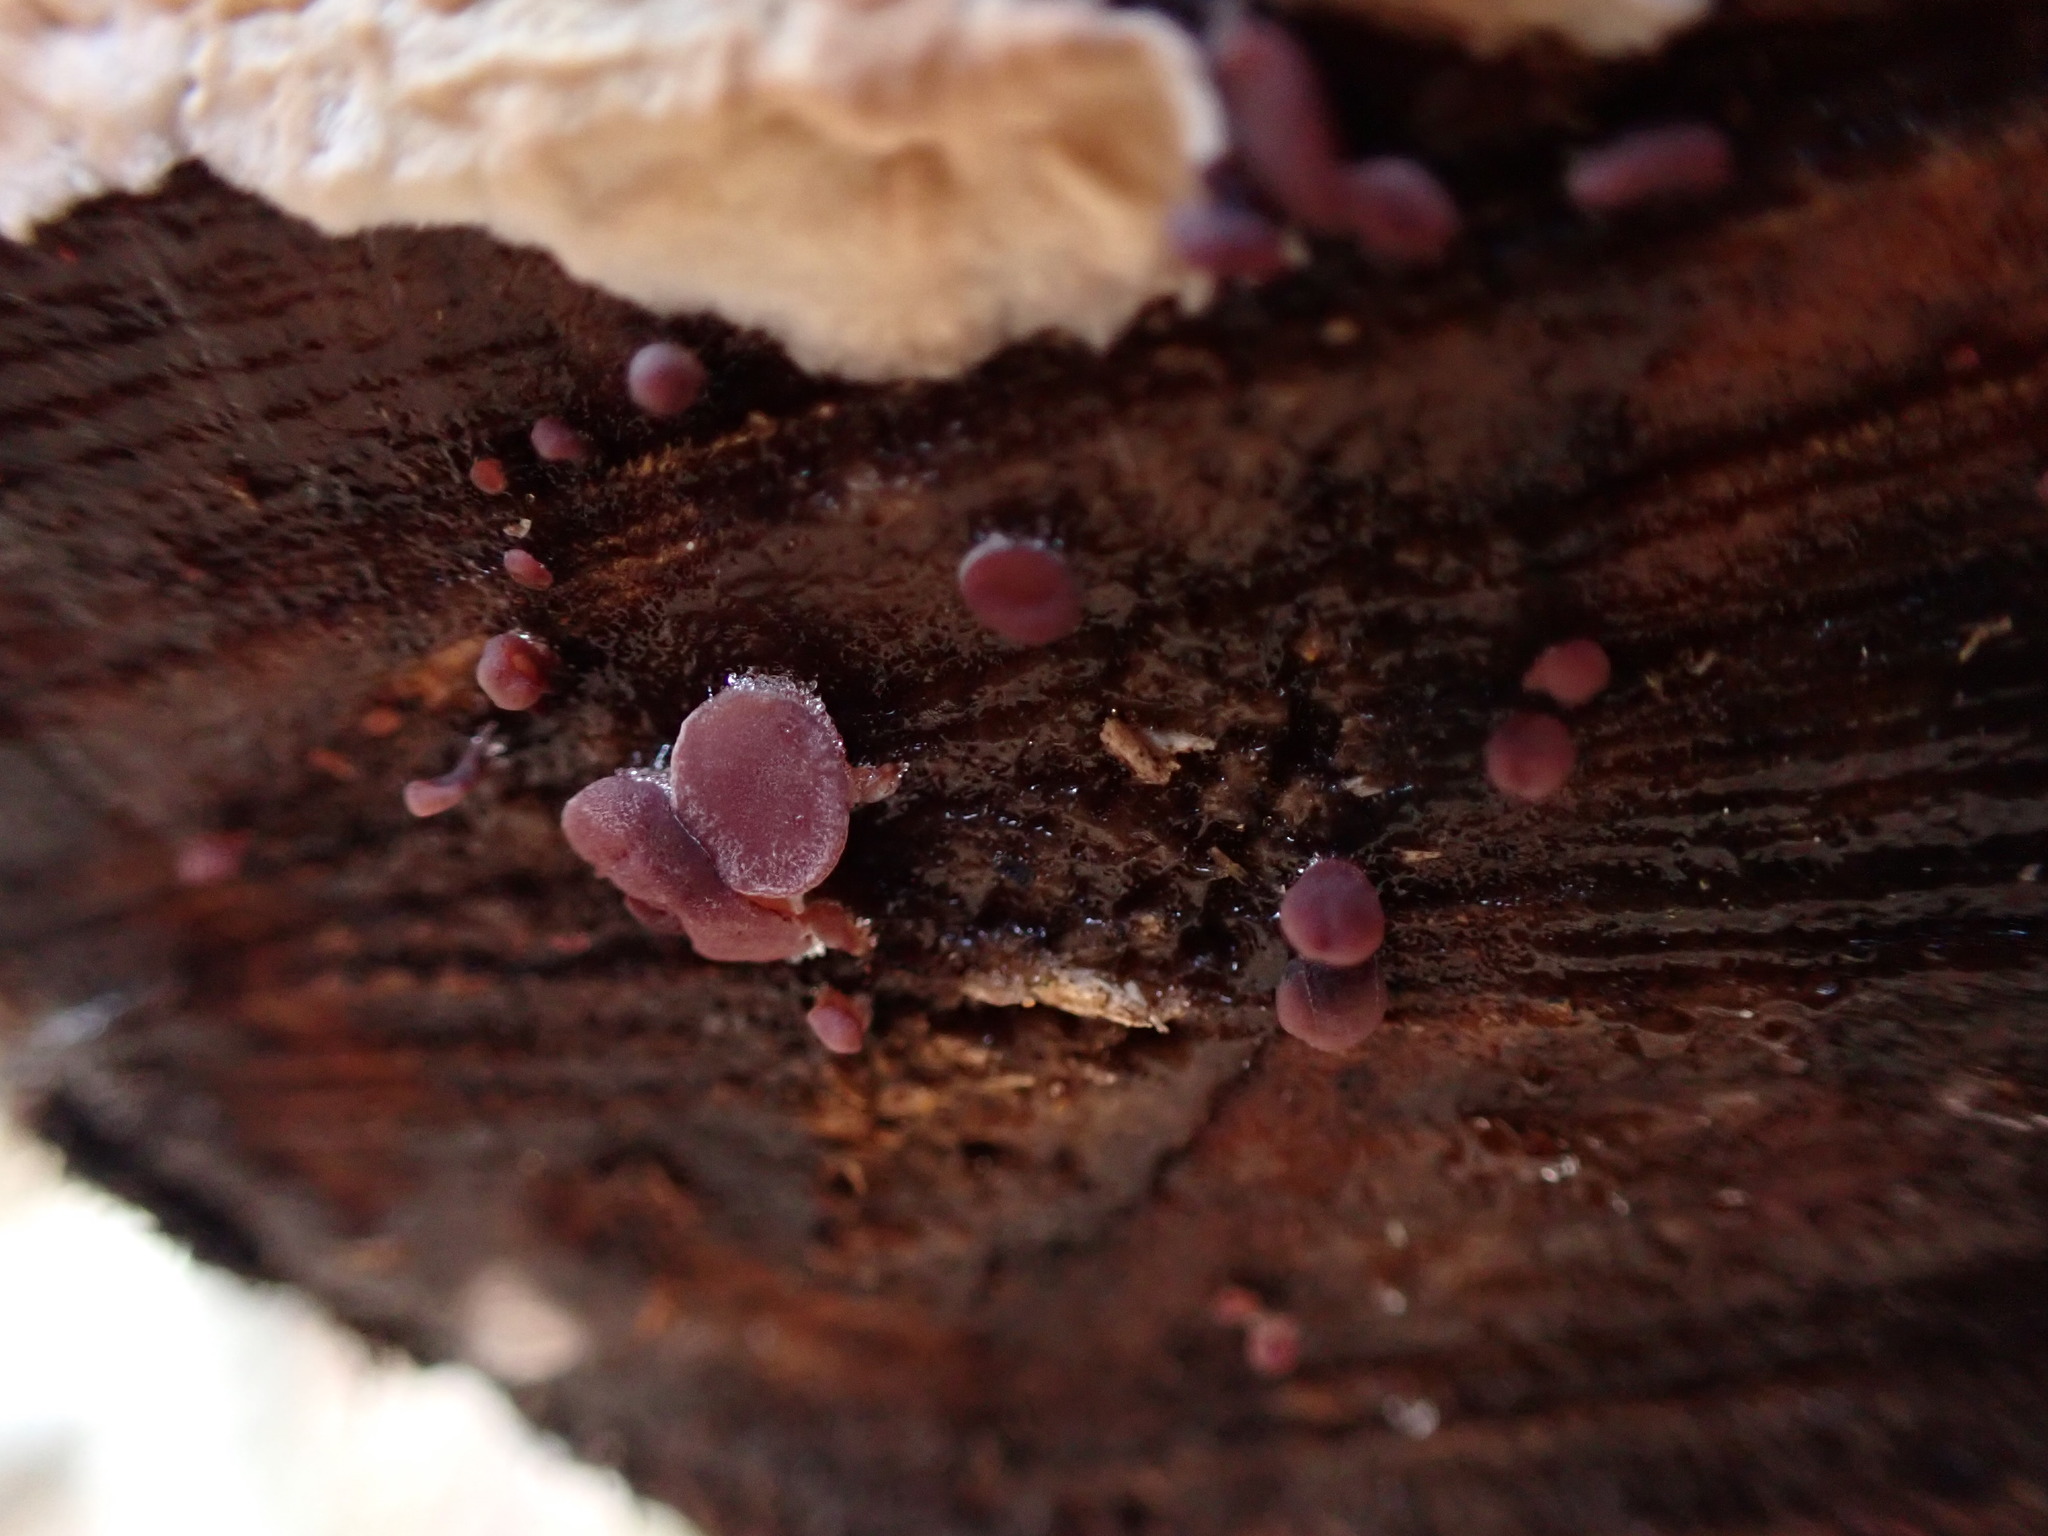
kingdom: Fungi
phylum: Ascomycota
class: Leotiomycetes
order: Helotiales
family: Gelatinodiscaceae
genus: Ascocoryne
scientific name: Ascocoryne sarcoides
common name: Purple jellydisc
